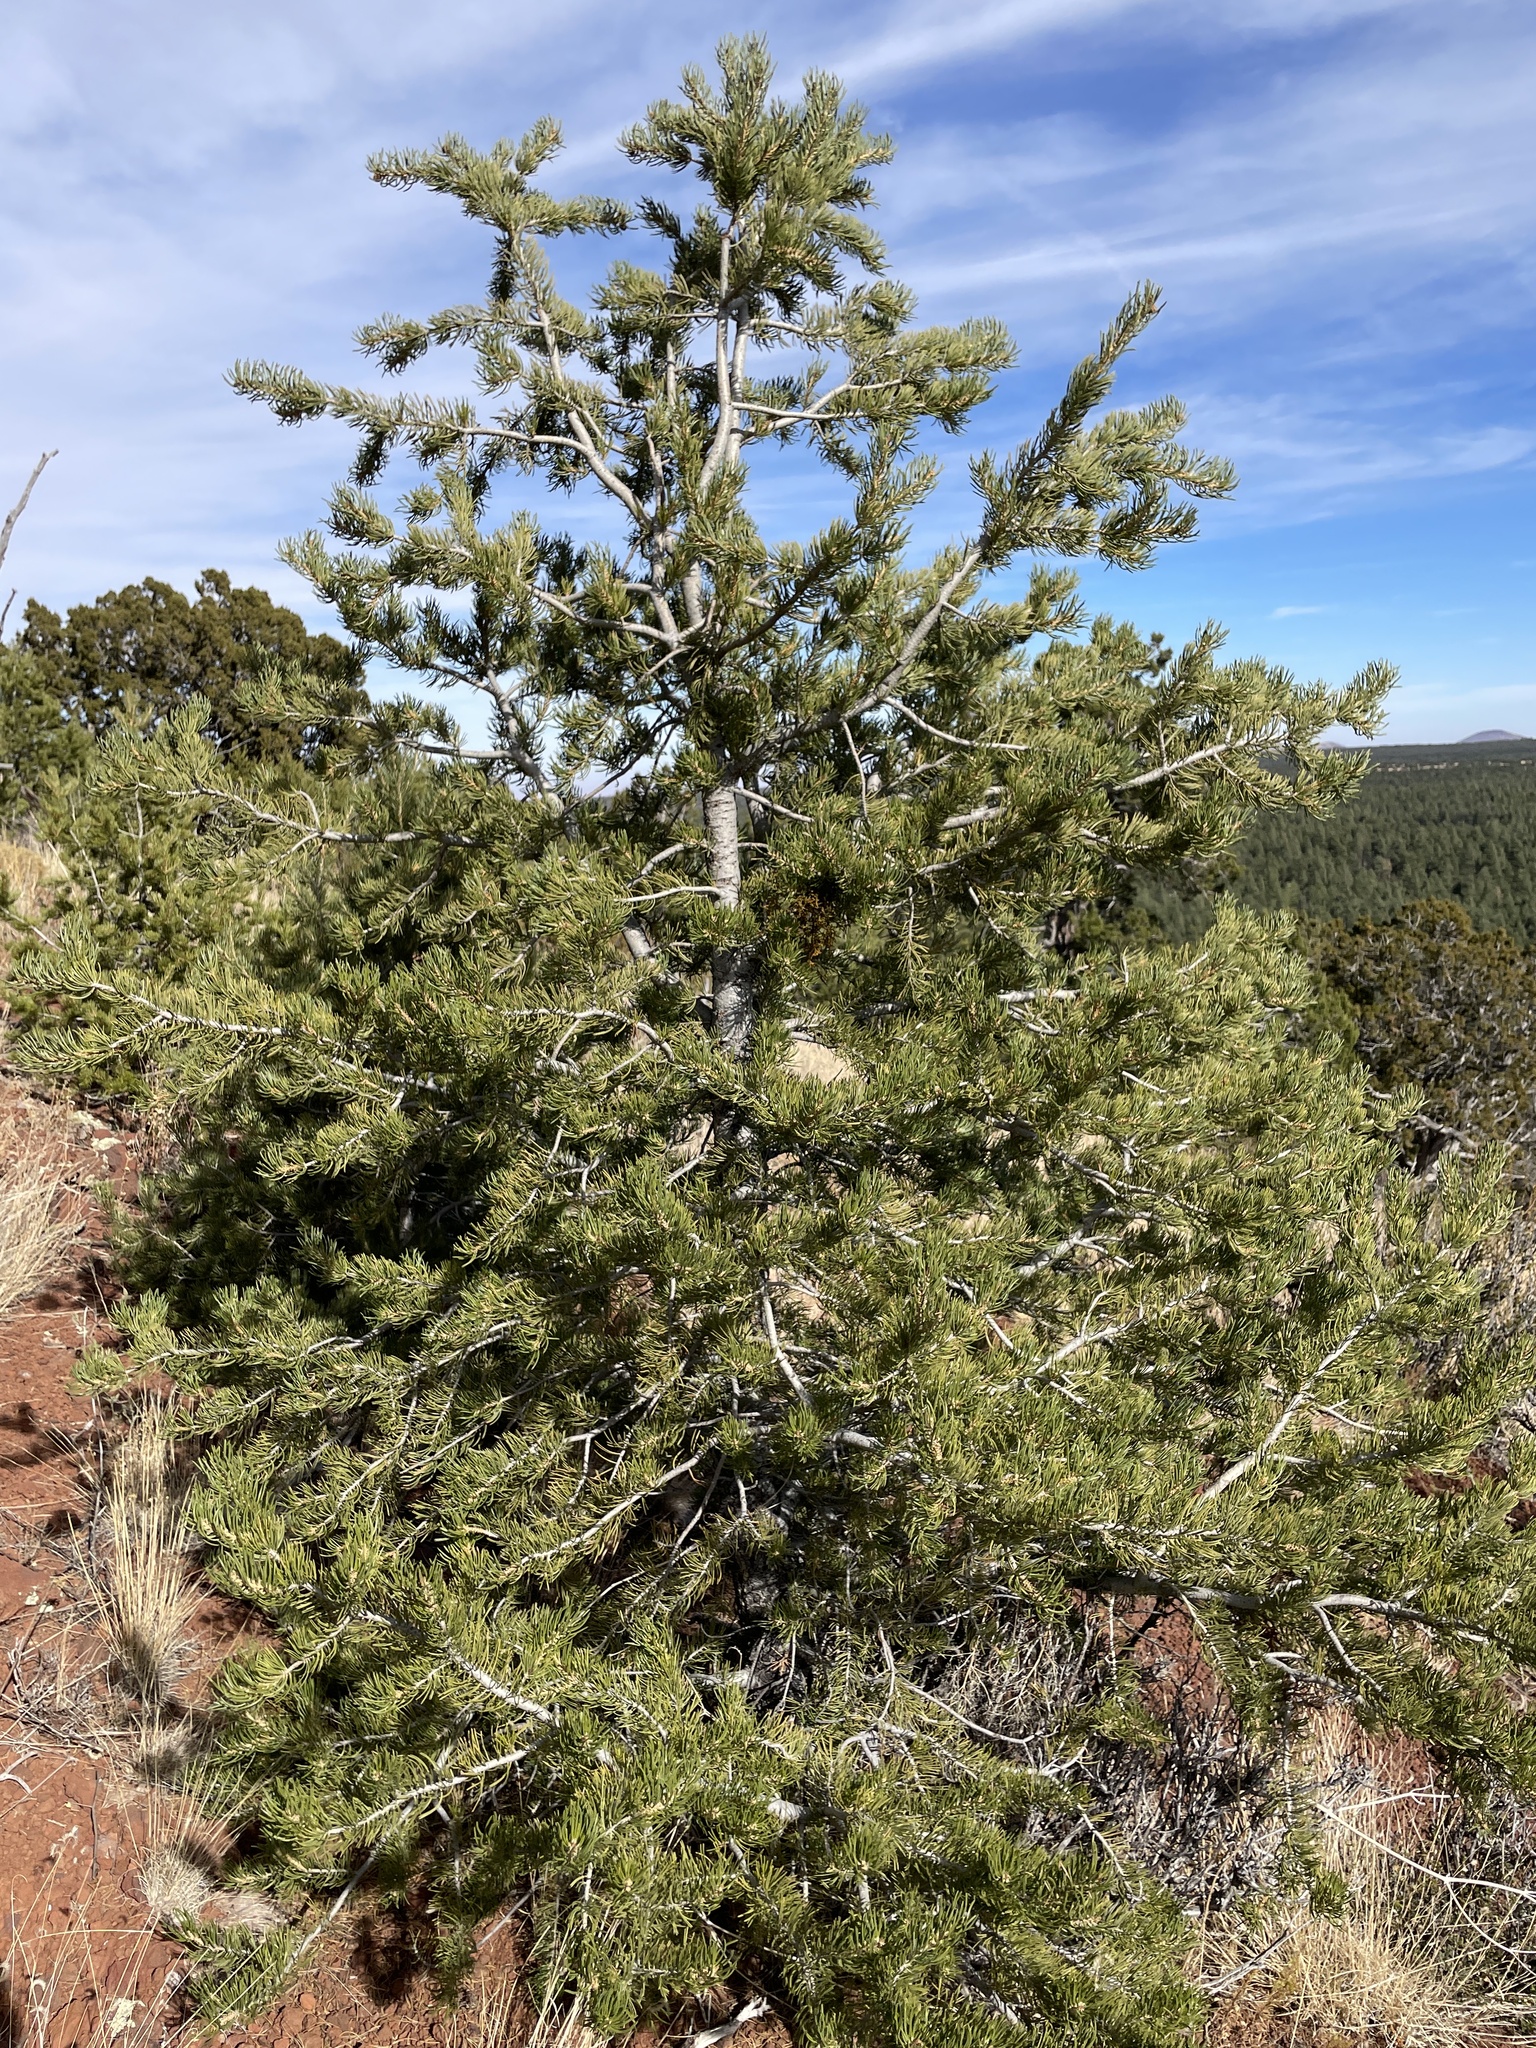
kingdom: Plantae
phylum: Tracheophyta
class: Magnoliopsida
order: Santalales
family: Viscaceae
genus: Arceuthobium
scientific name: Arceuthobium divaricatum
